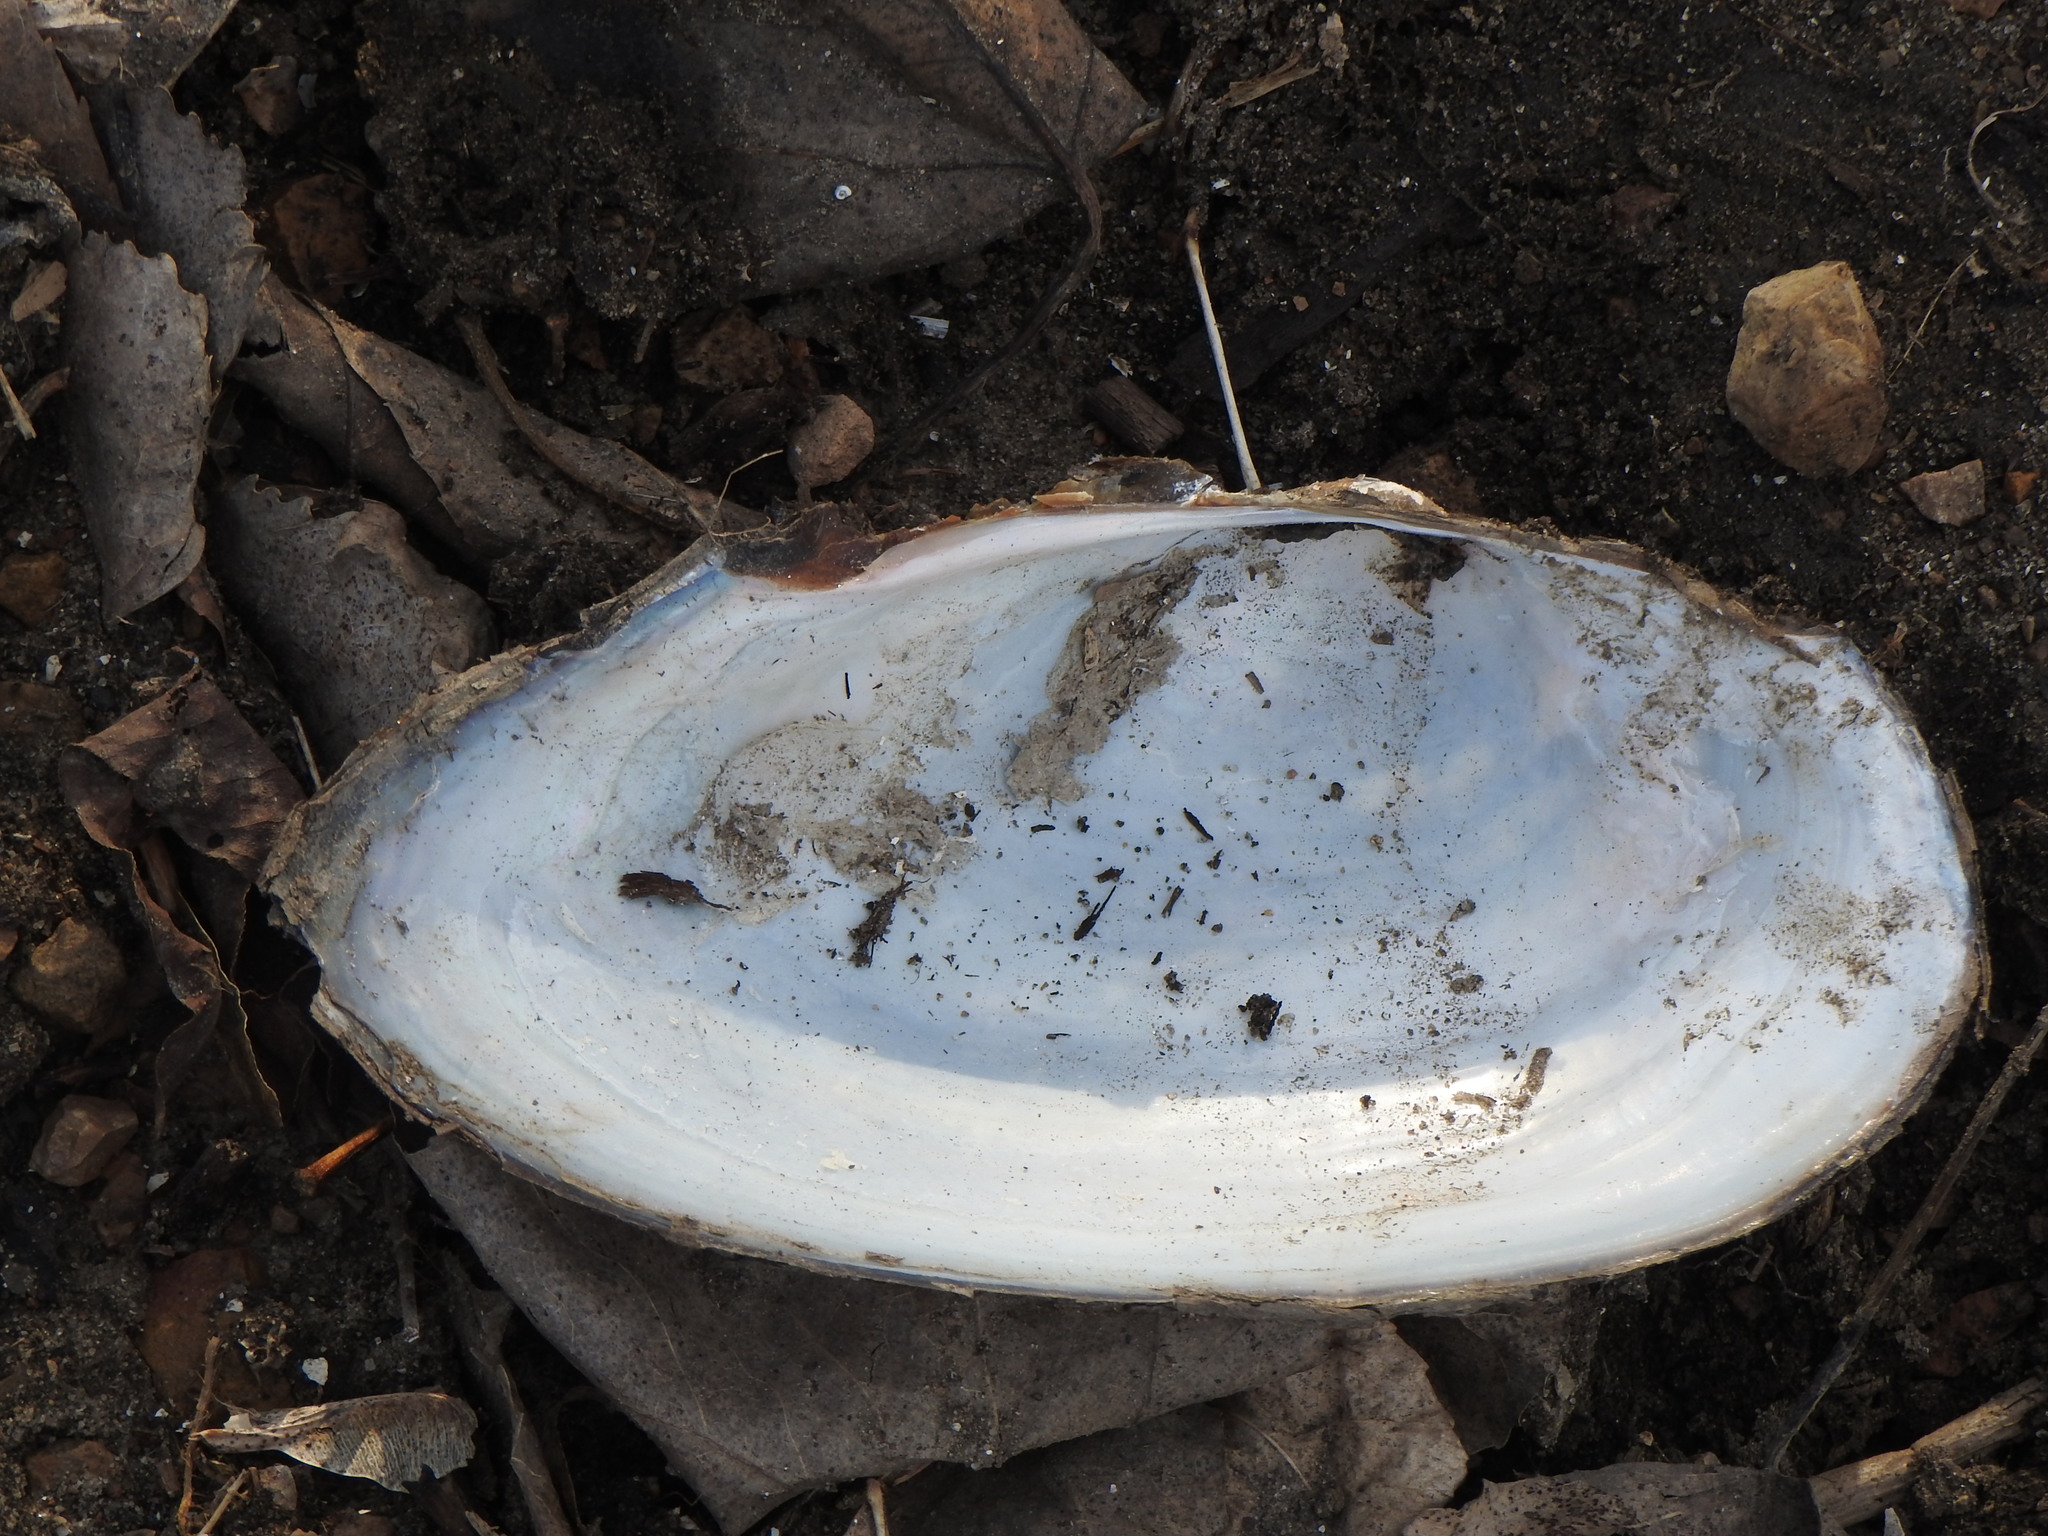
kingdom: Animalia
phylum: Mollusca
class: Bivalvia
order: Unionida
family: Unionidae
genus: Pyganodon
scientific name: Pyganodon grandis
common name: Giant floater
